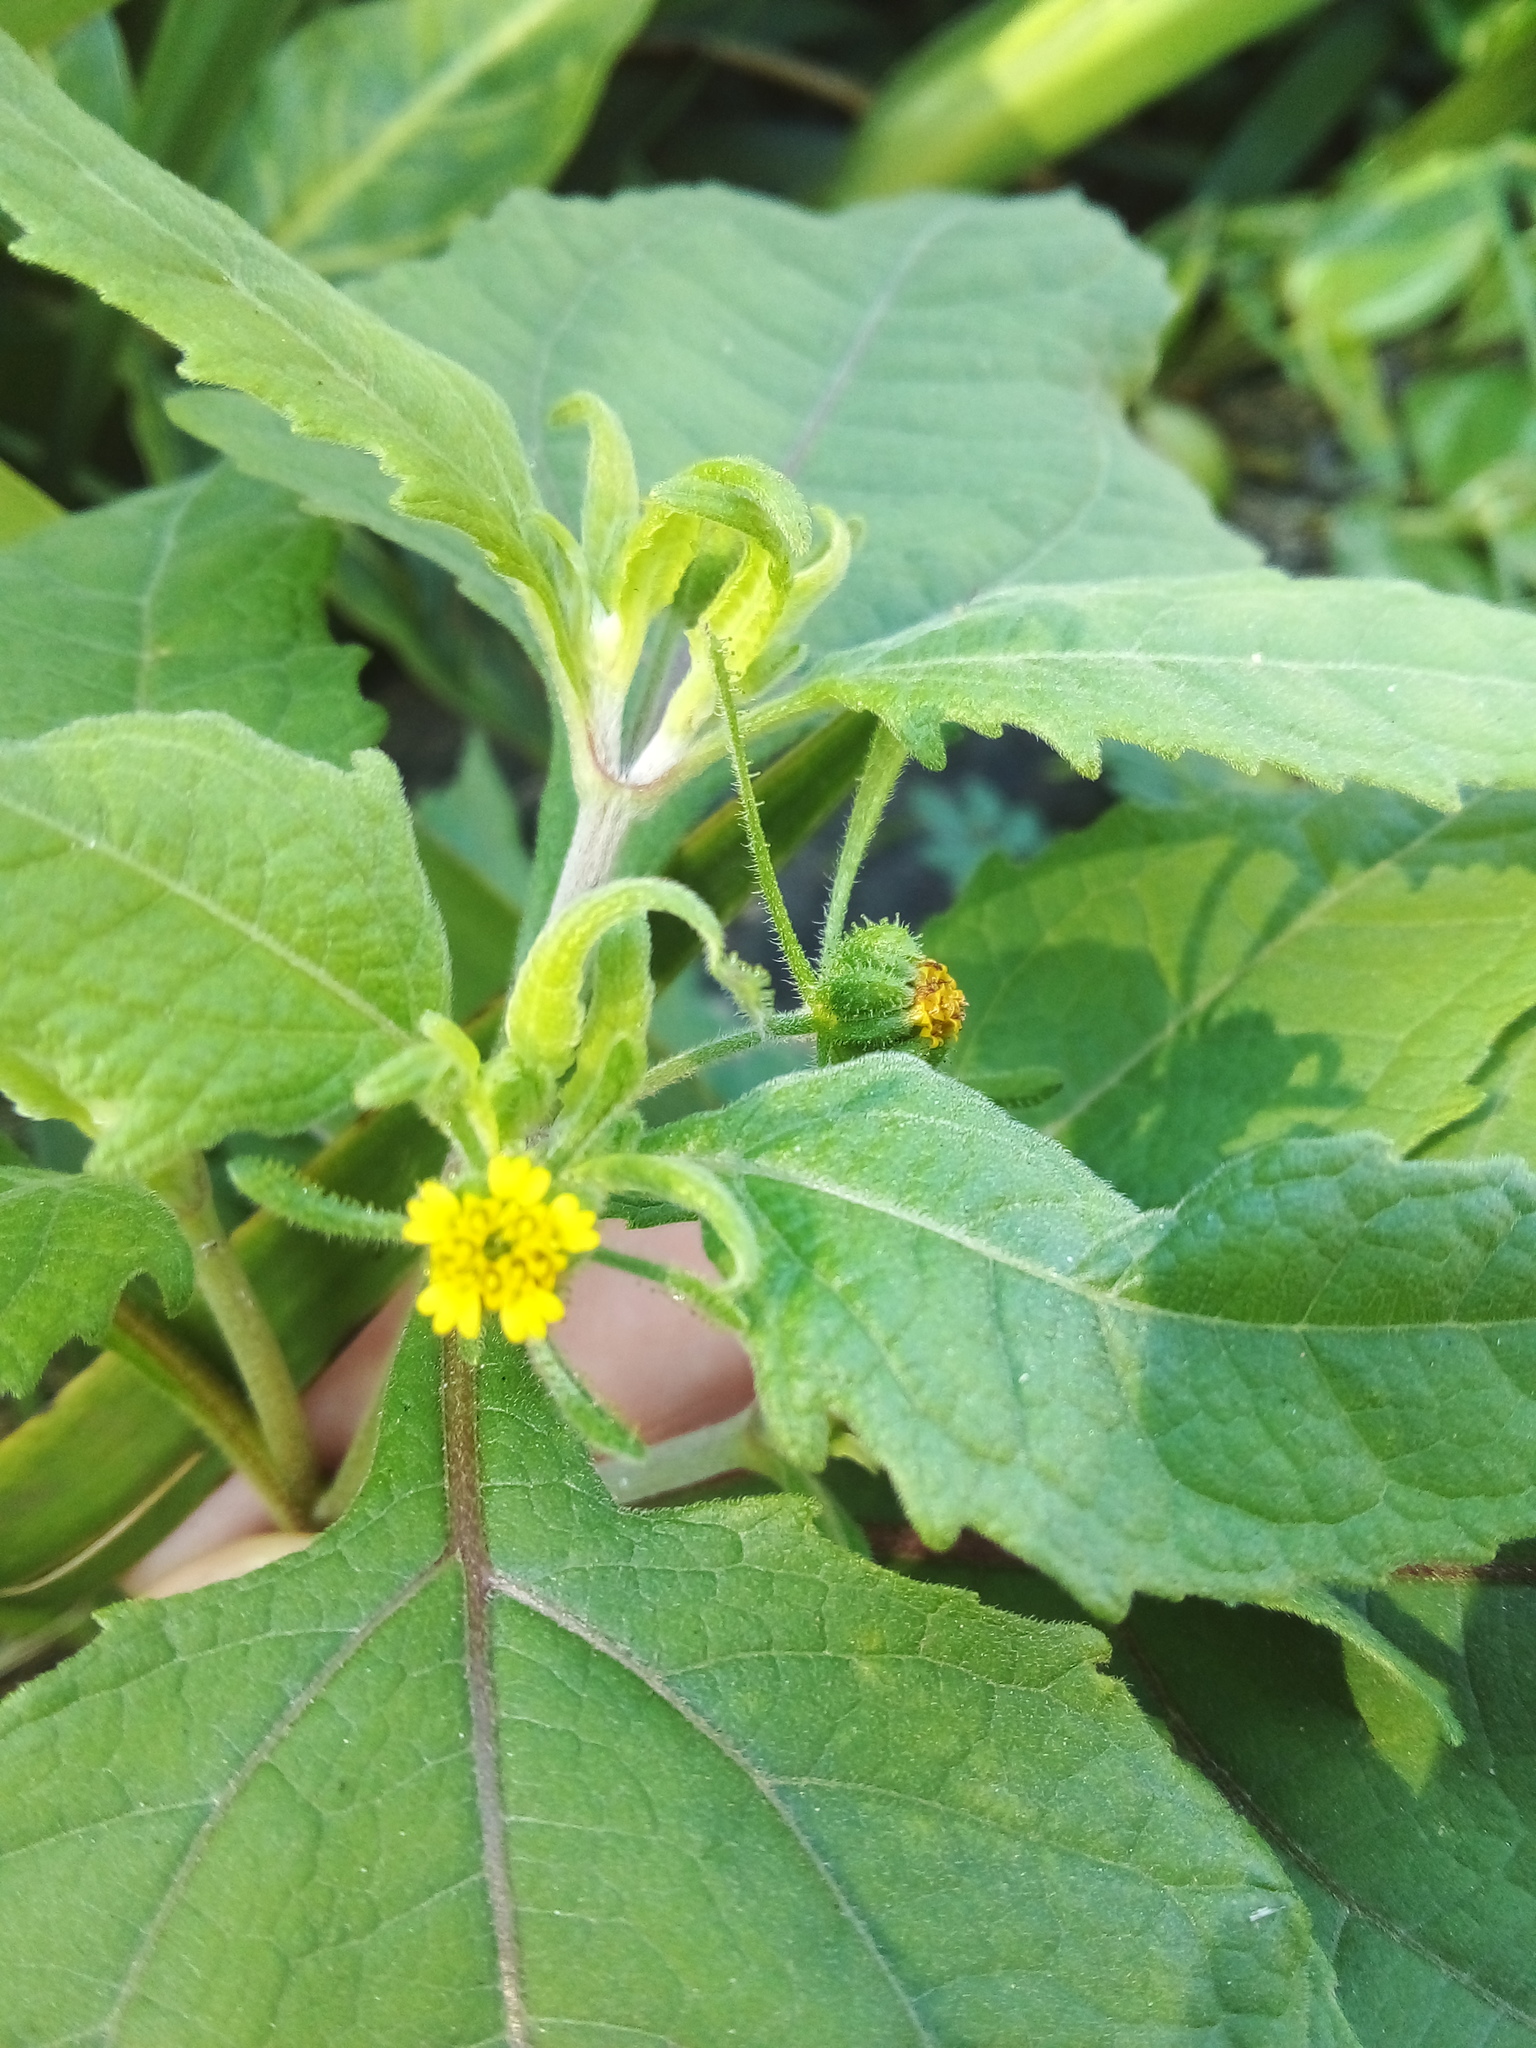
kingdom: Plantae
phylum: Tracheophyta
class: Magnoliopsida
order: Asterales
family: Asteraceae
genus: Sigesbeckia
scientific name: Sigesbeckia orientalis
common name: Eastern st paul's-wort
